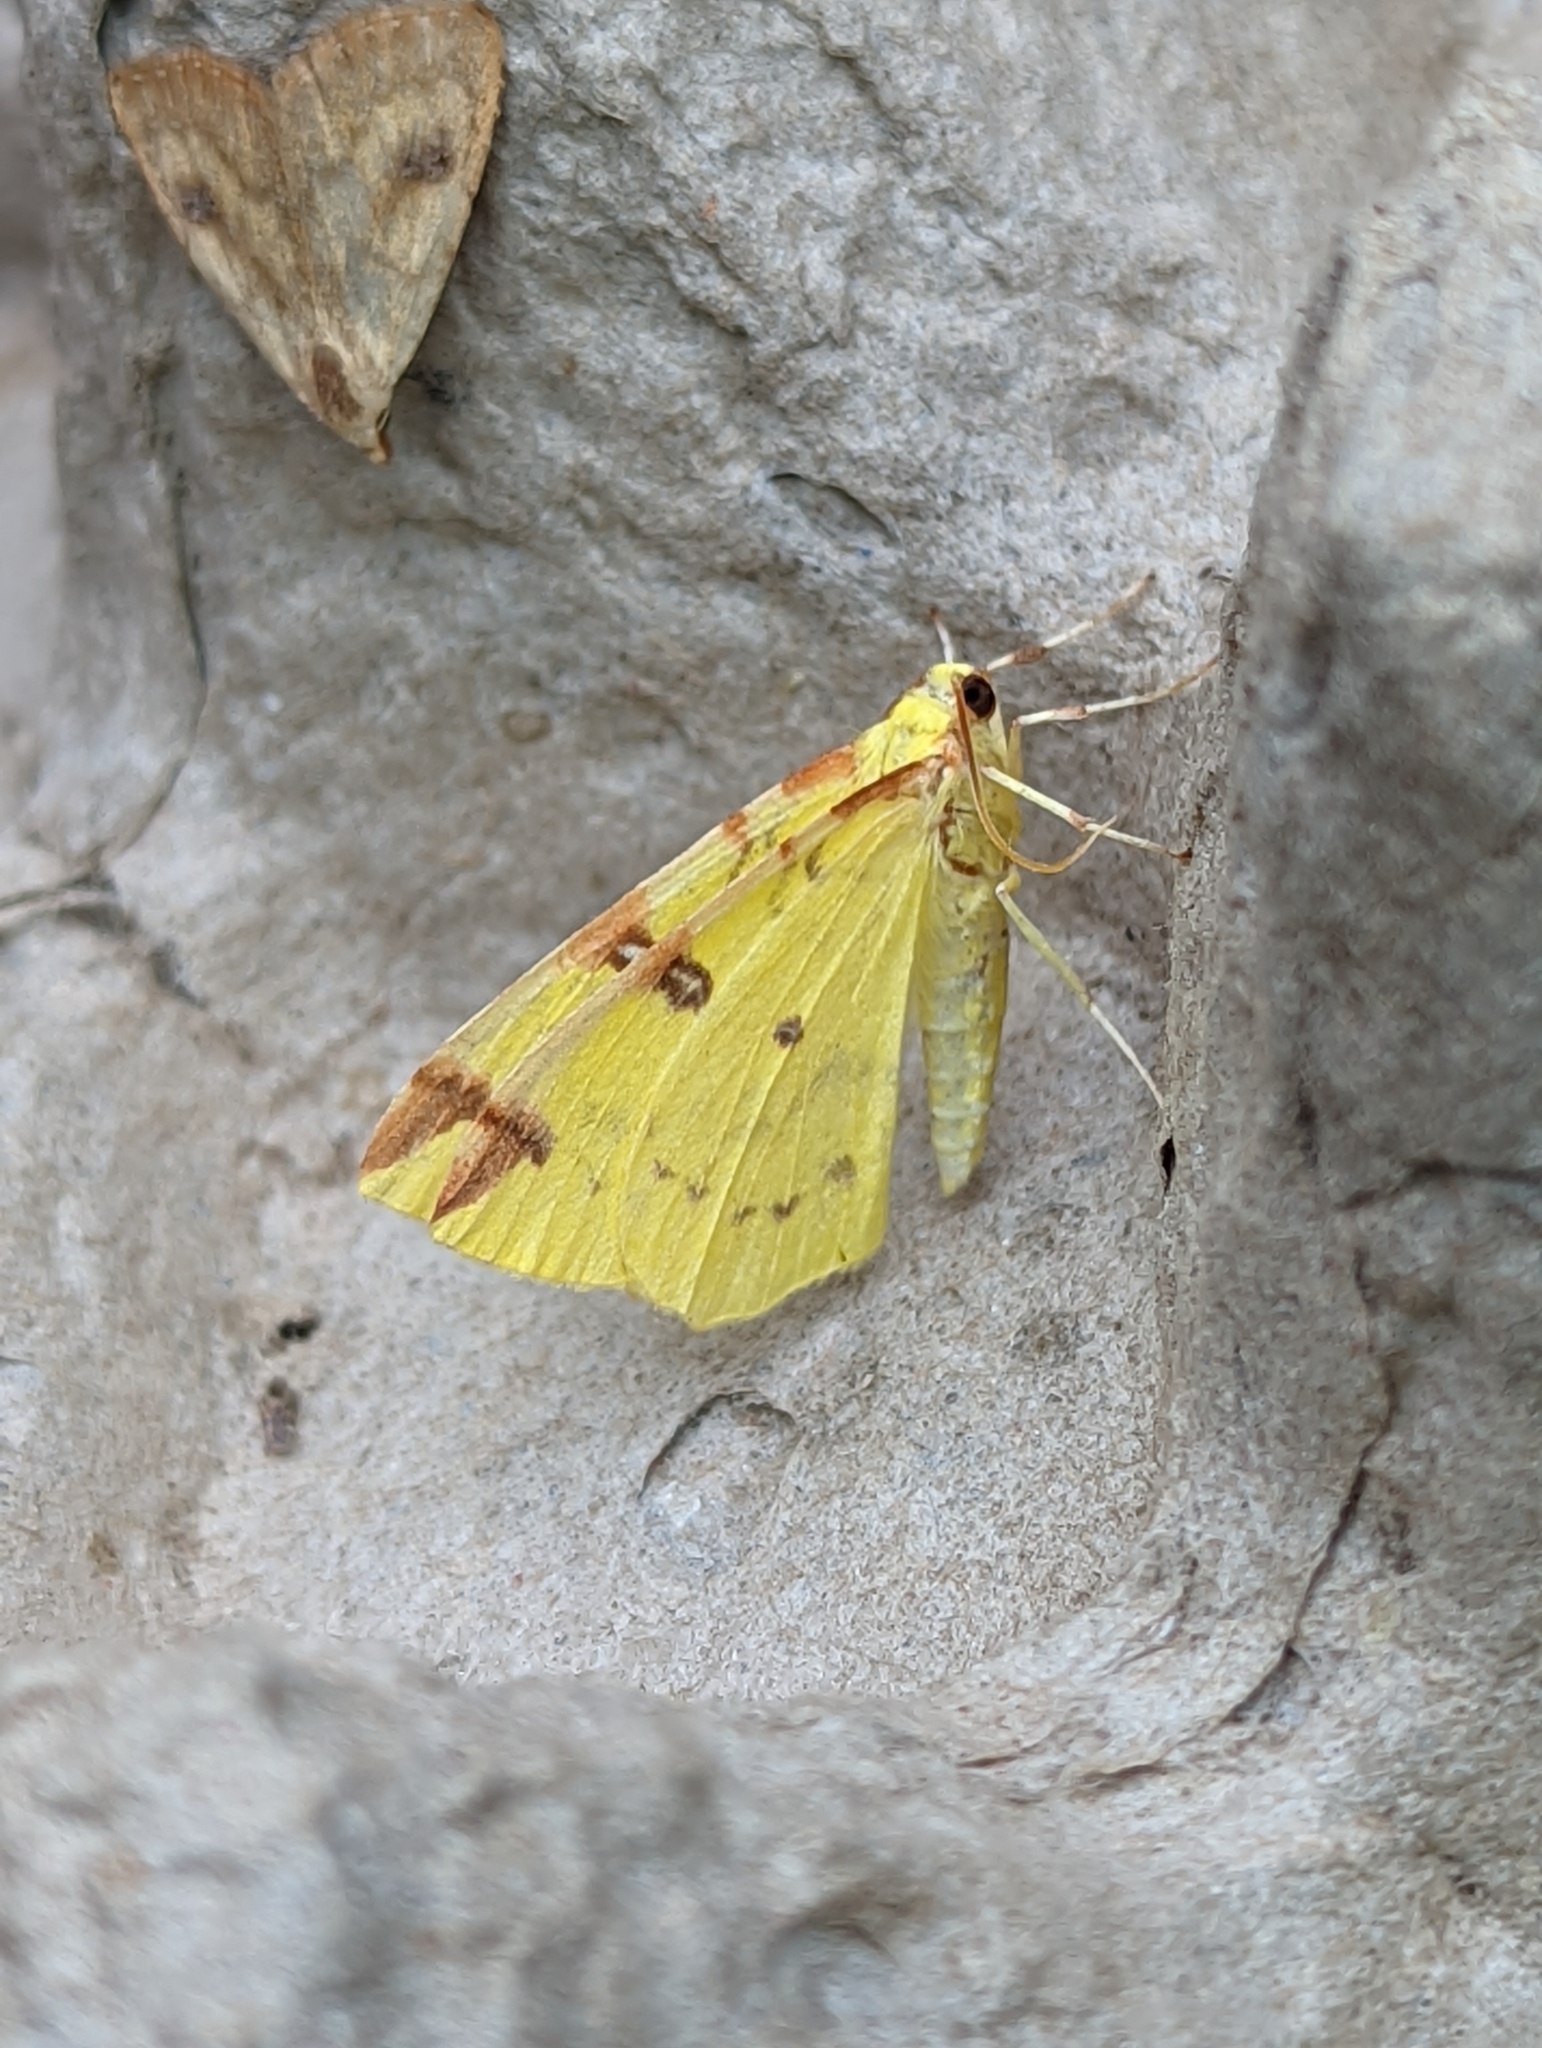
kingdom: Animalia
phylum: Arthropoda
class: Insecta
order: Lepidoptera
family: Geometridae
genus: Opisthograptis
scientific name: Opisthograptis luteolata
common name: Brimstone moth
